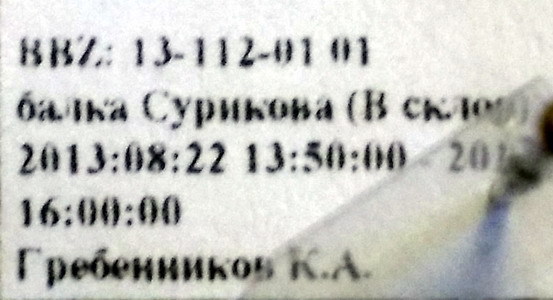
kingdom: Animalia
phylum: Arthropoda
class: Insecta
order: Hymenoptera
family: Formicidae
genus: Cardiocondyla
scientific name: Cardiocondyla stambuloffii
